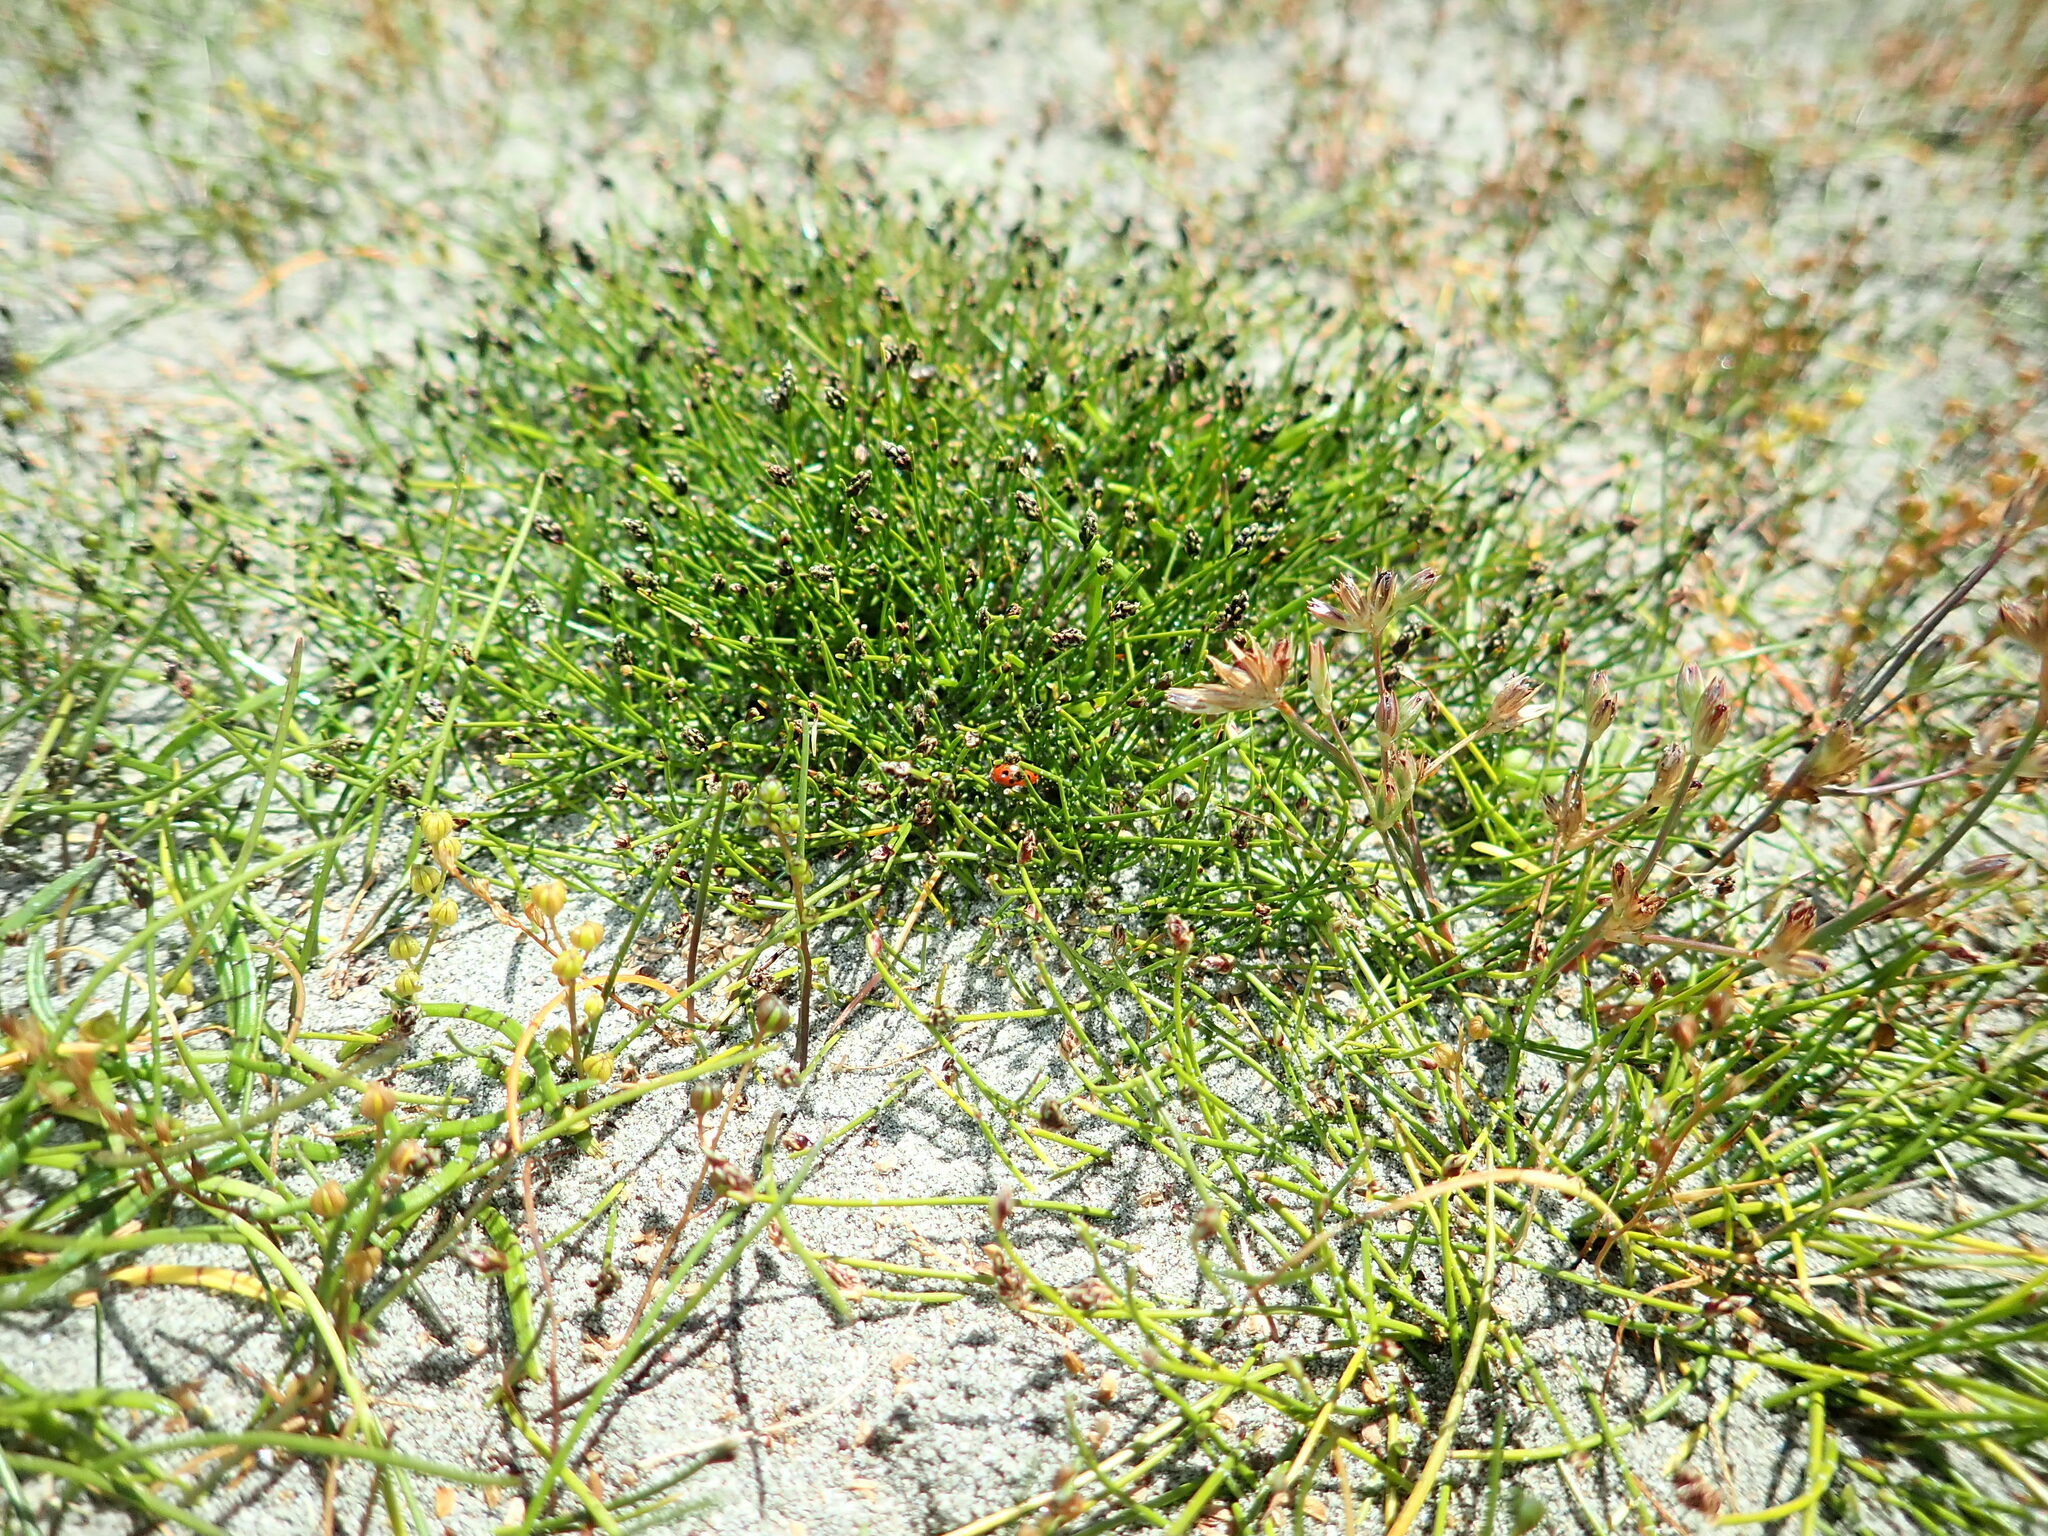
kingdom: Animalia
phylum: Arthropoda
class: Insecta
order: Coleoptera
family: Coccinellidae
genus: Coccinella
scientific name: Coccinella undecimpunctata
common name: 11-spot ladybird
